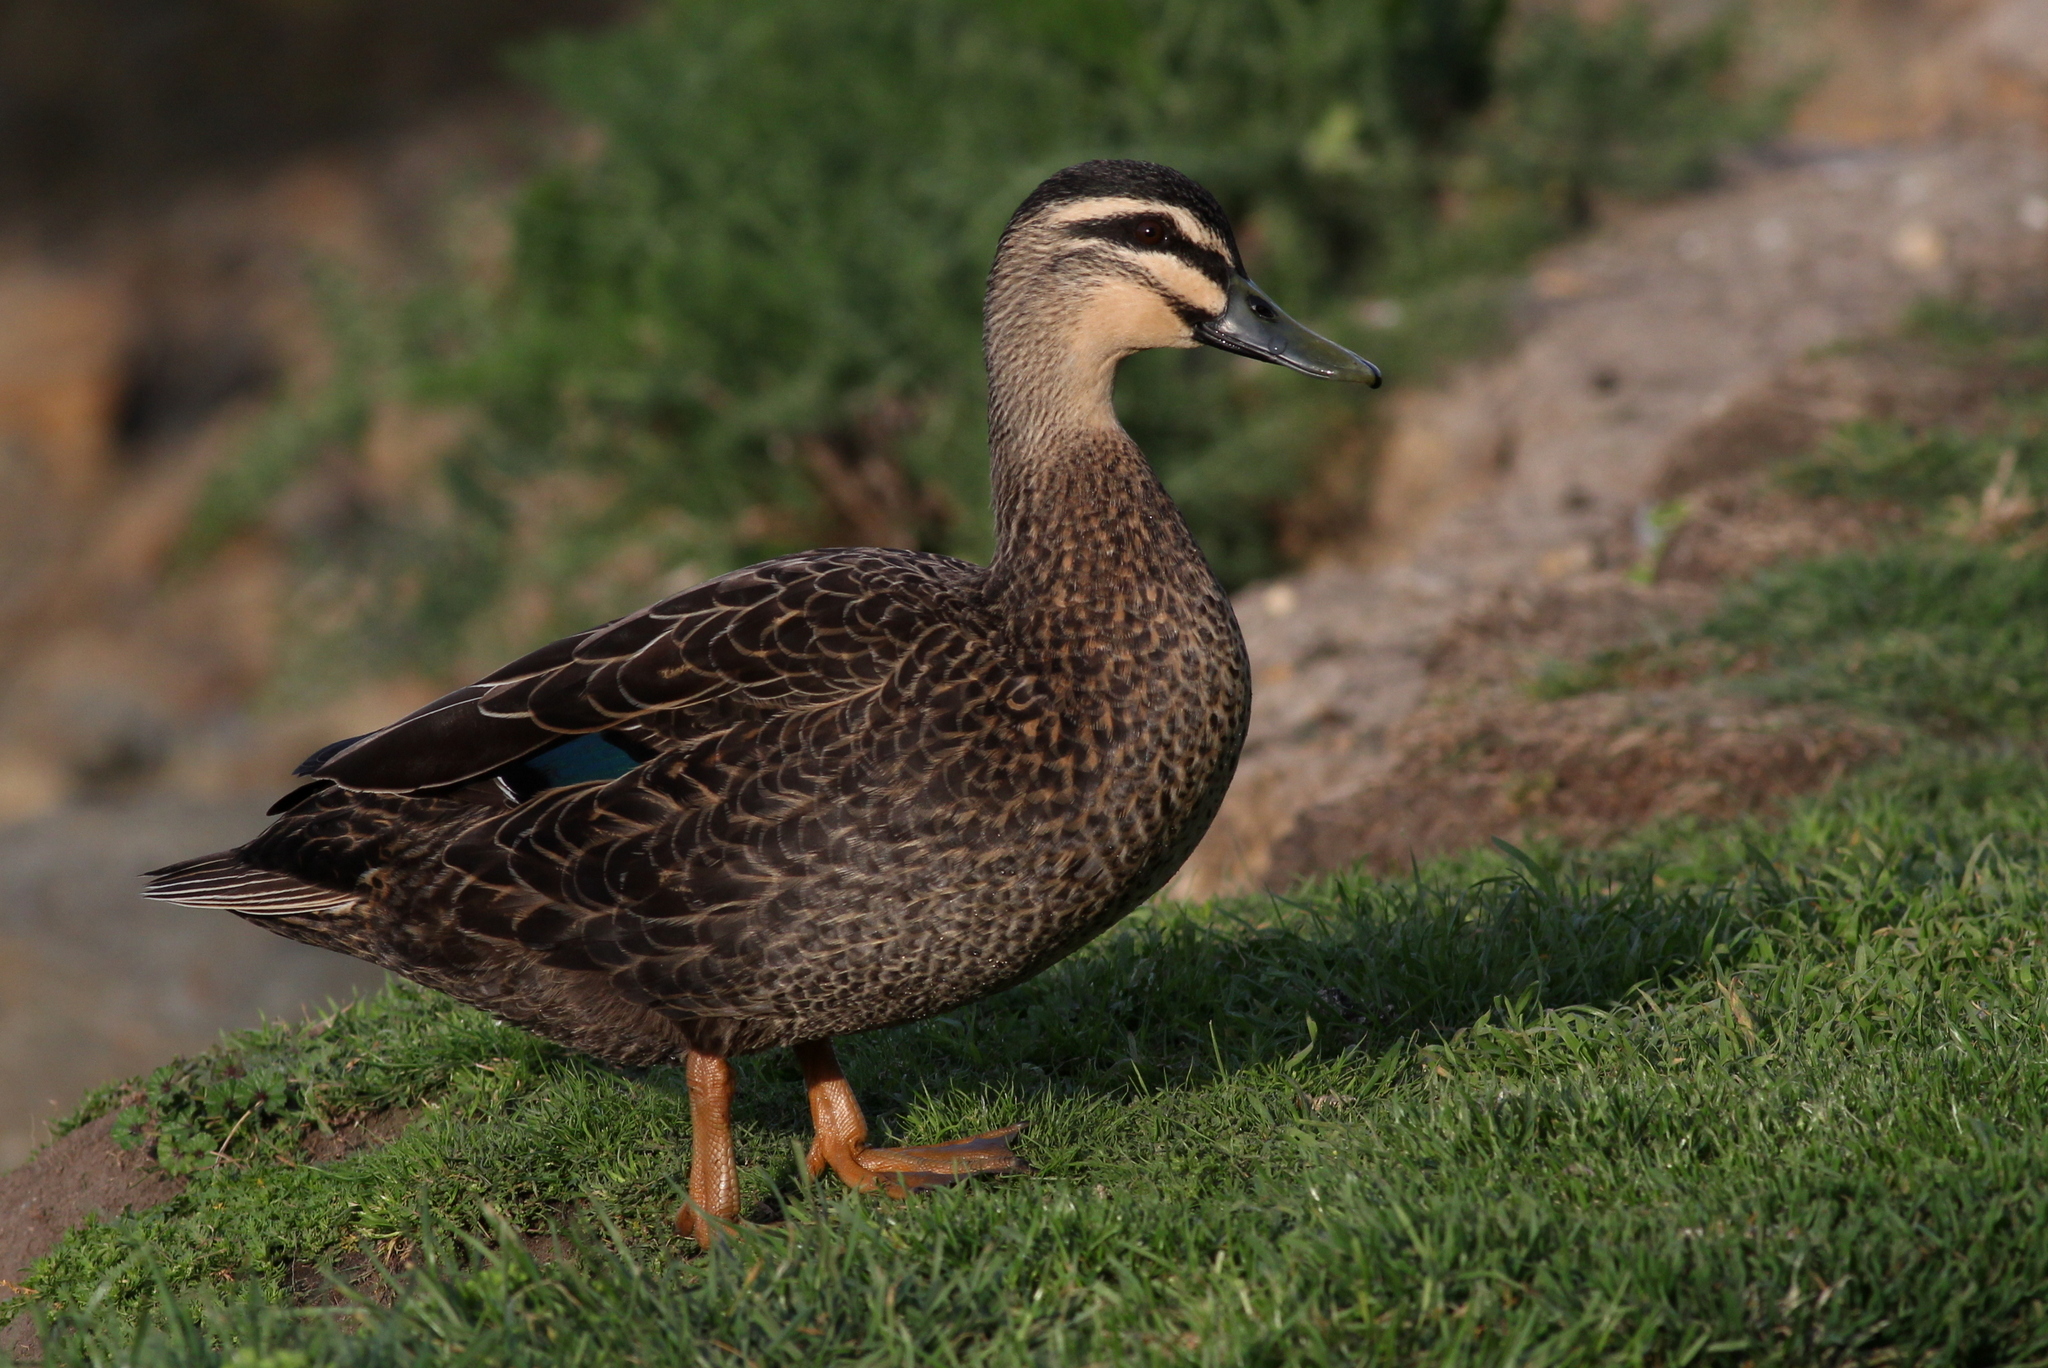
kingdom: Animalia
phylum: Chordata
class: Aves
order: Anseriformes
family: Anatidae
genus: Anas
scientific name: Anas
